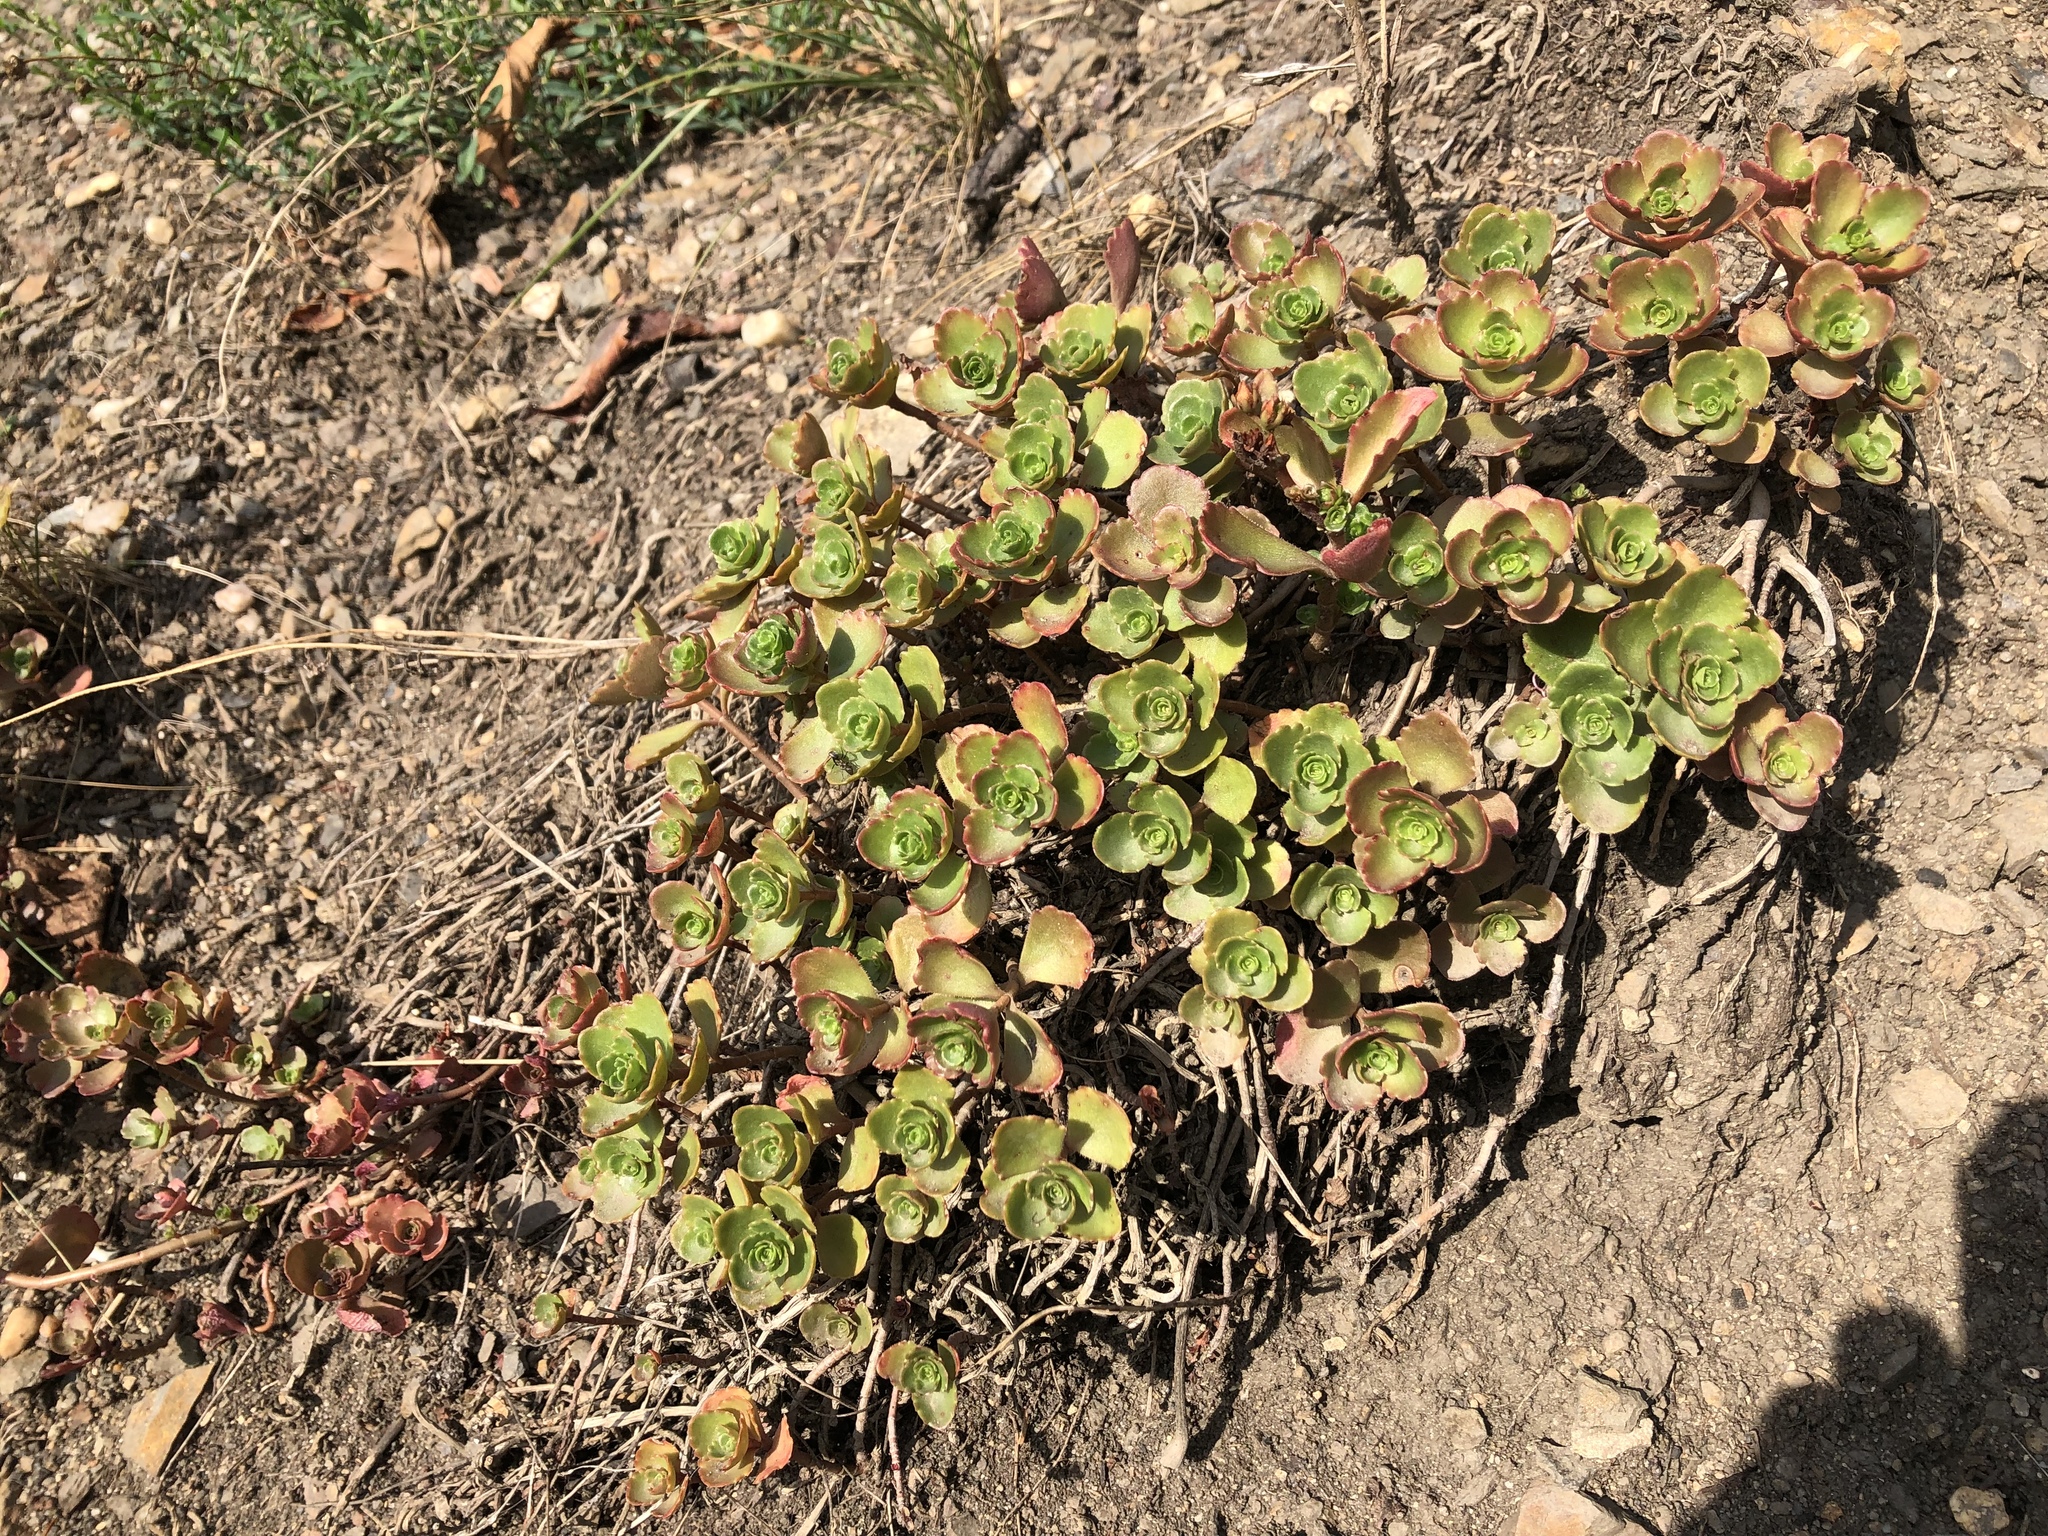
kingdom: Plantae
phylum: Tracheophyta
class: Magnoliopsida
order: Saxifragales
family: Crassulaceae
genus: Phedimus
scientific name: Phedimus spurius
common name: Caucasian stonecrop
